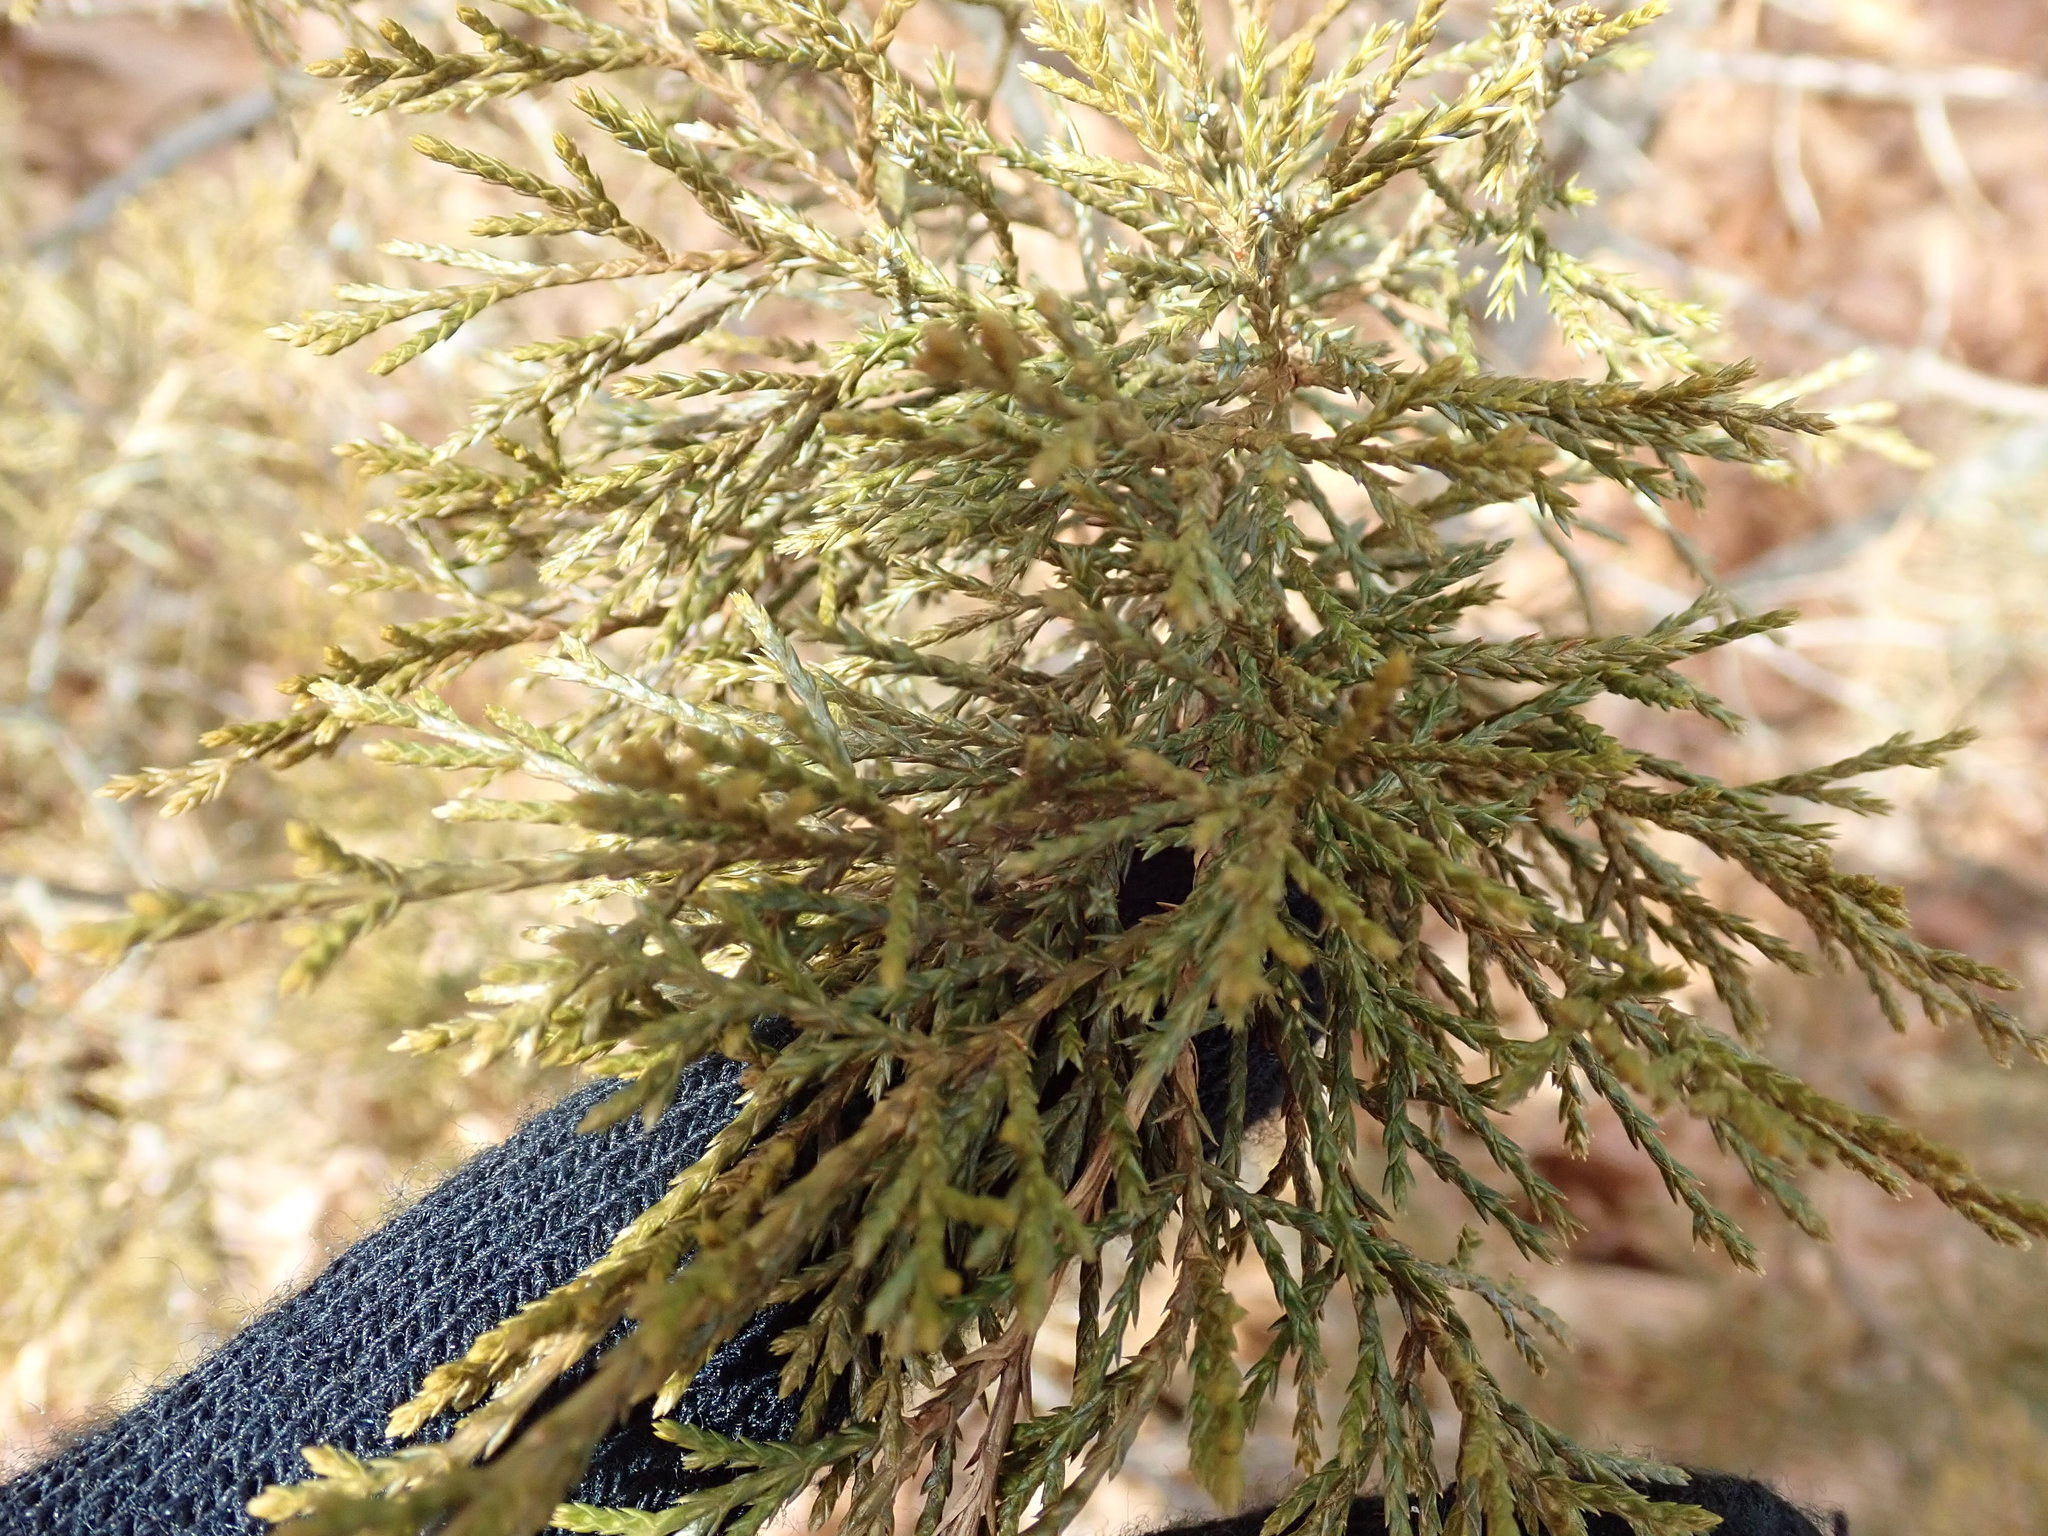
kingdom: Plantae
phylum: Tracheophyta
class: Pinopsida
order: Pinales
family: Cupressaceae
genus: Juniperus
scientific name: Juniperus virginiana
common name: Red juniper
